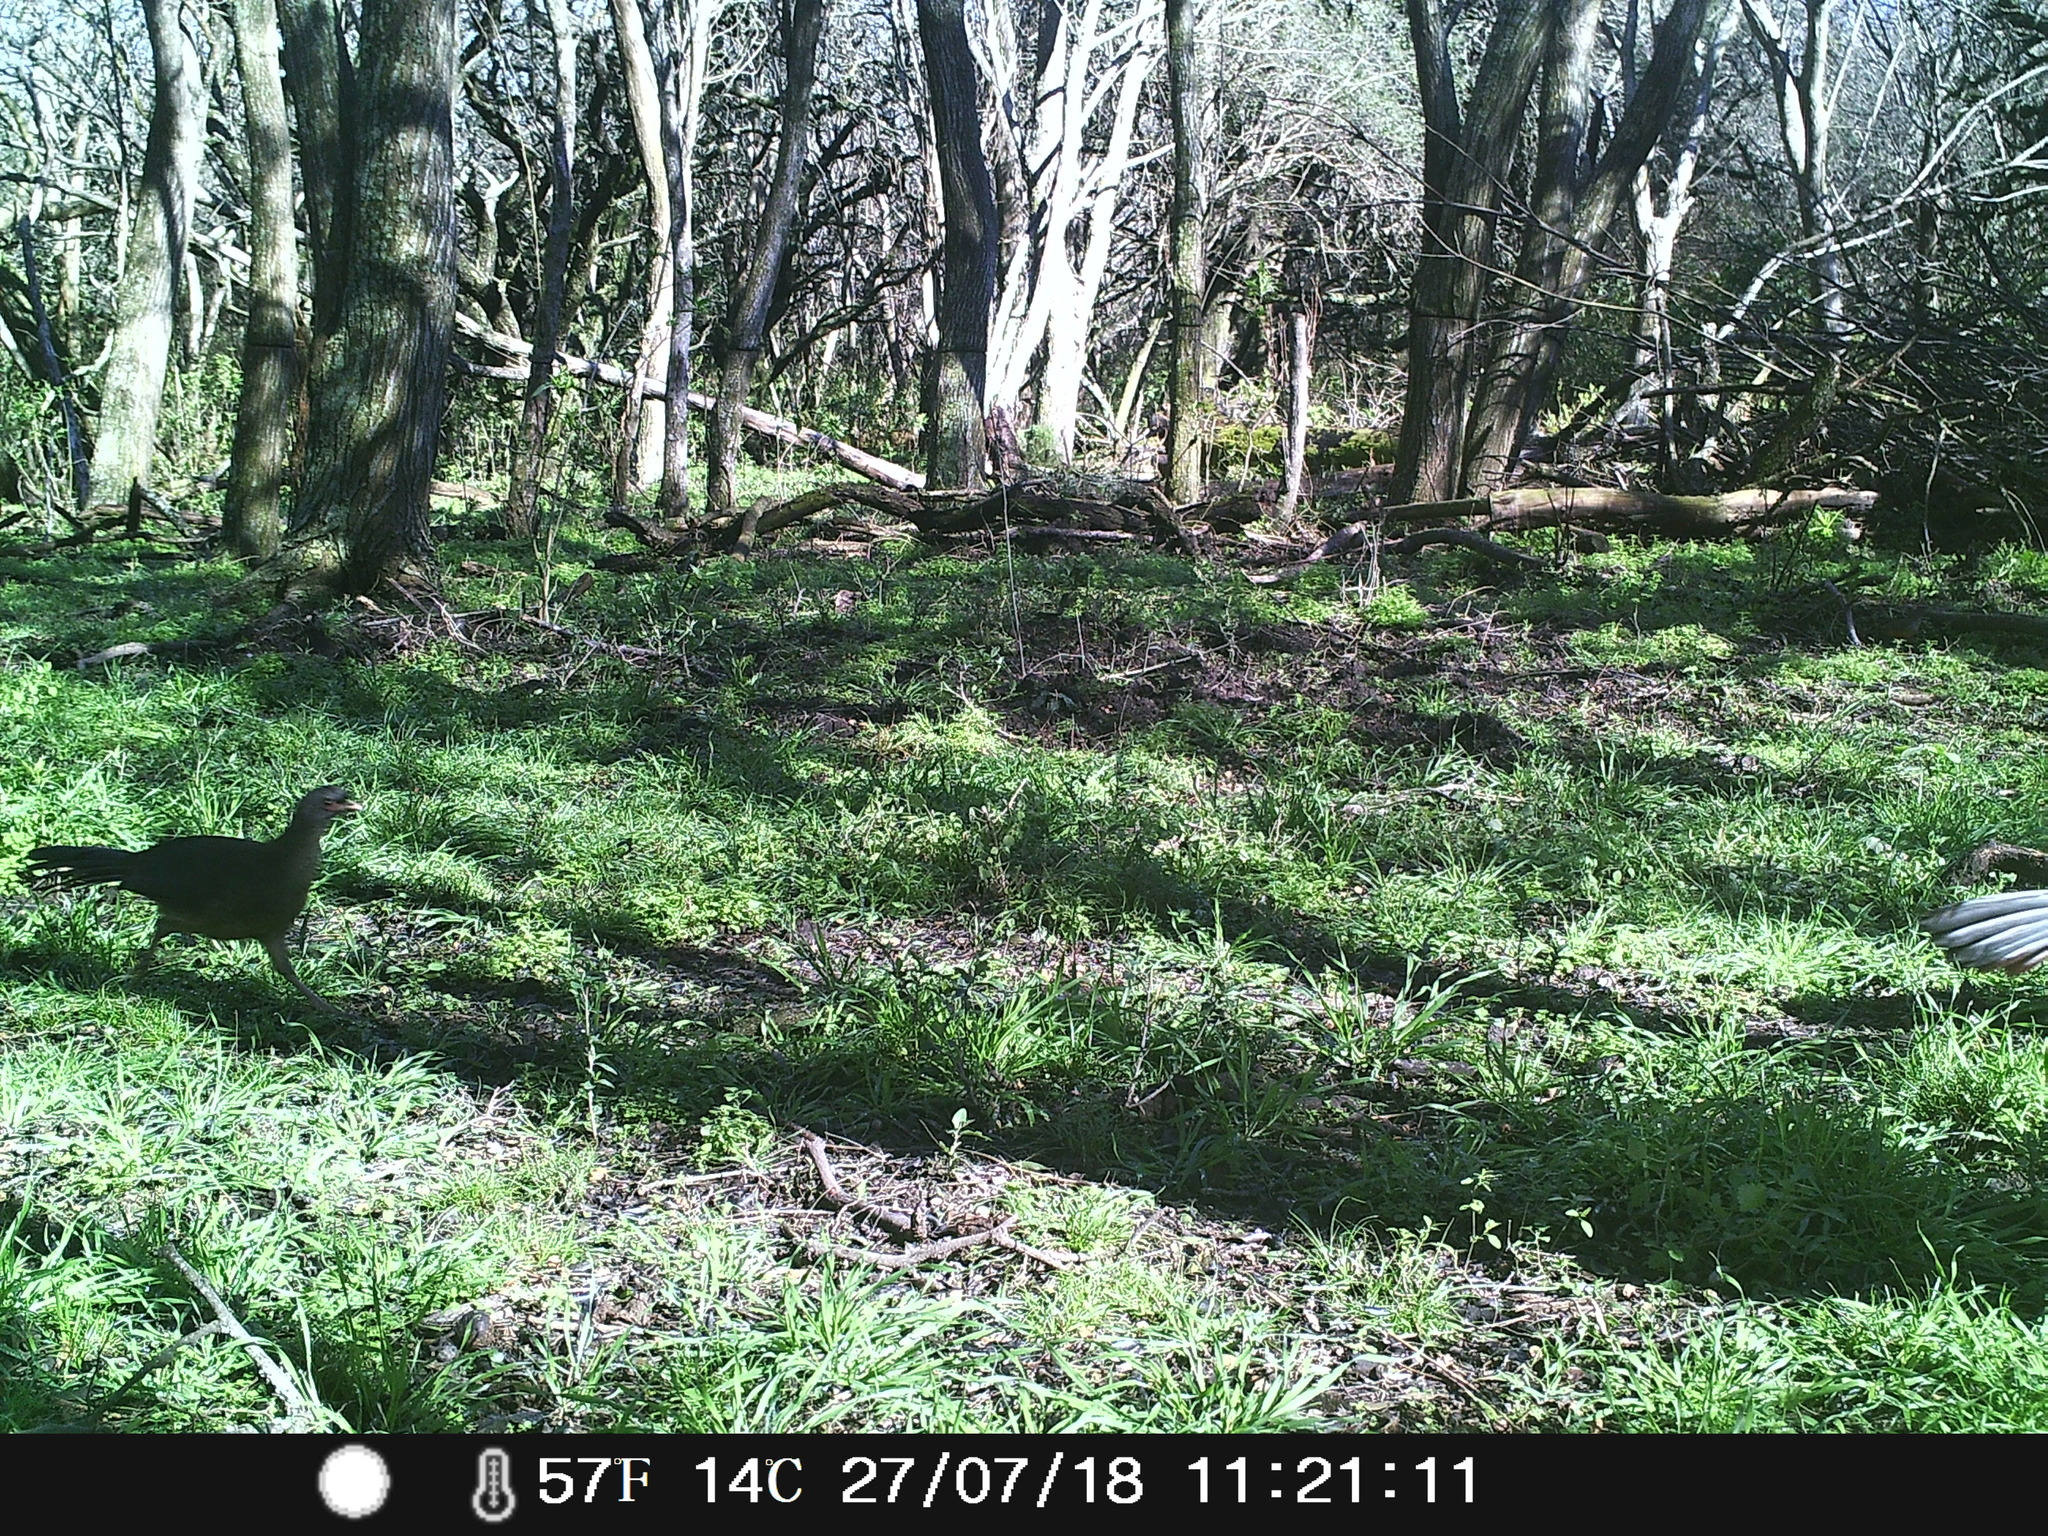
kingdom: Animalia
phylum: Chordata
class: Aves
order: Galliformes
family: Cracidae
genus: Ortalis
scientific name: Ortalis canicollis
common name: Chaco chachalaca
